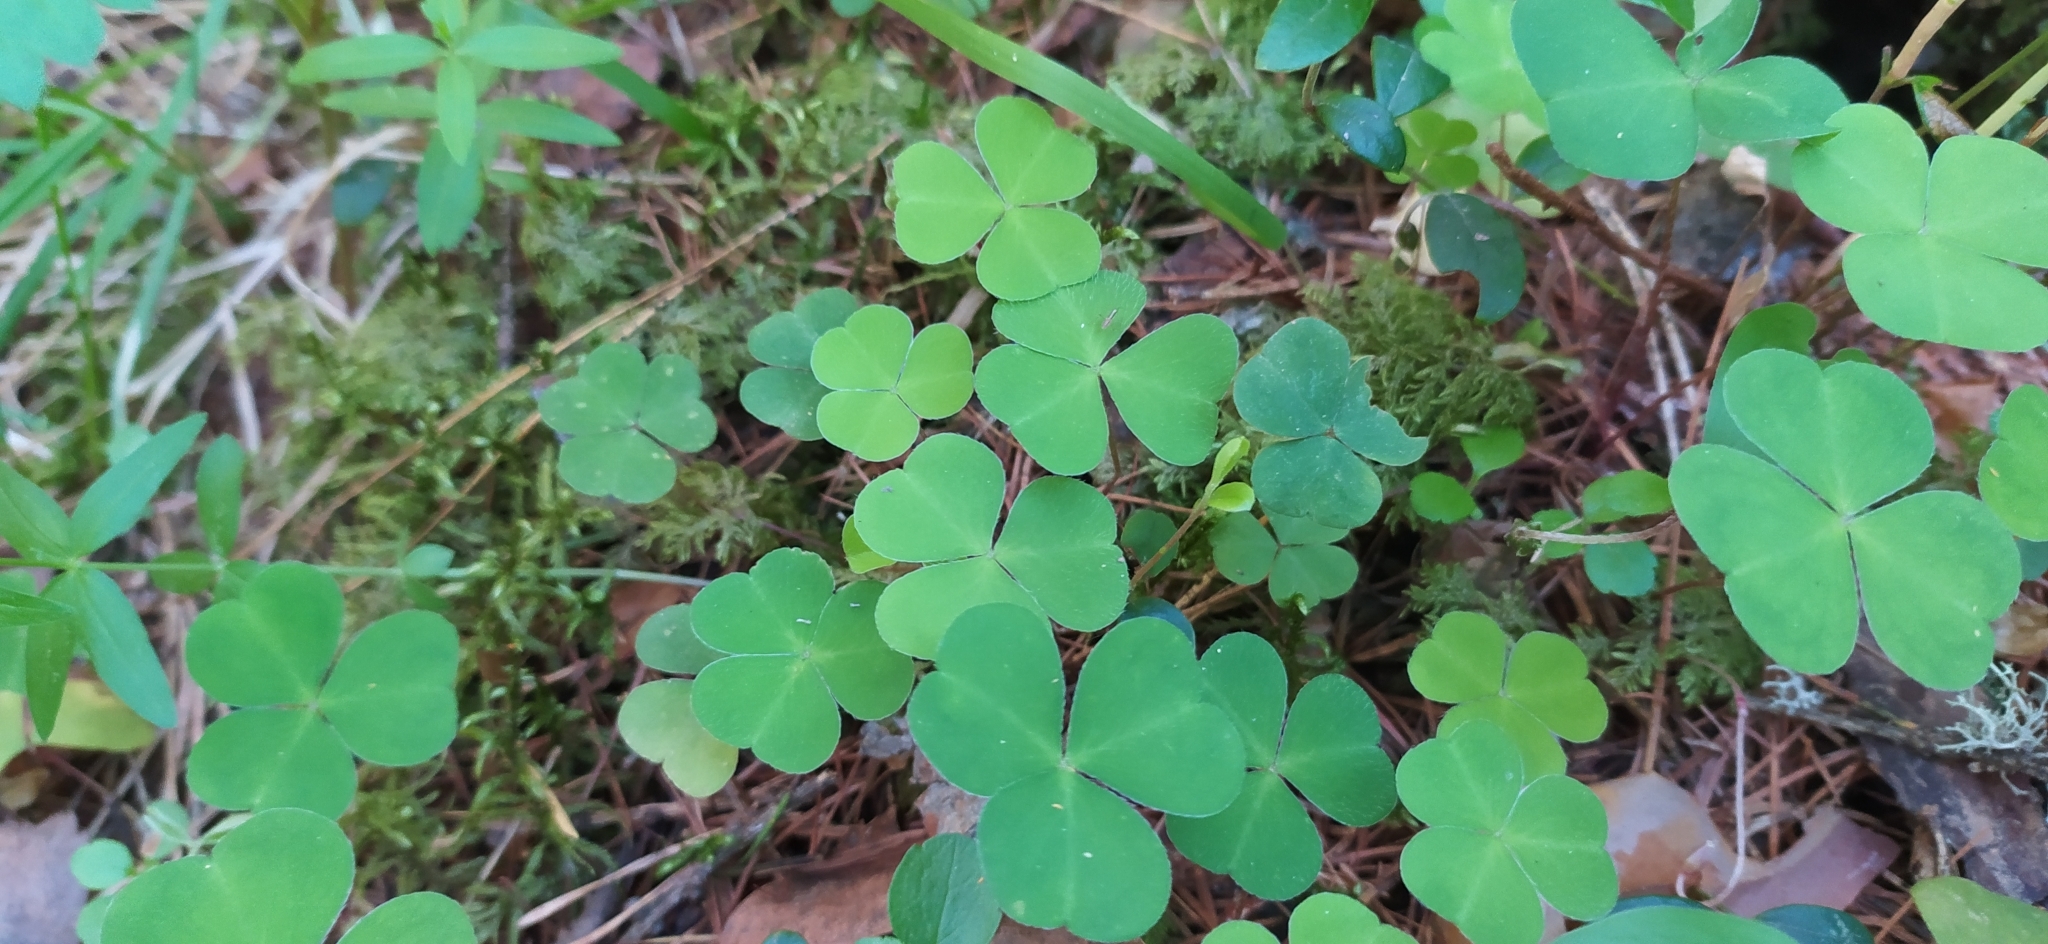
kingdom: Plantae
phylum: Tracheophyta
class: Magnoliopsida
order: Oxalidales
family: Oxalidaceae
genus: Oxalis
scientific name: Oxalis acetosella
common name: Wood-sorrel
